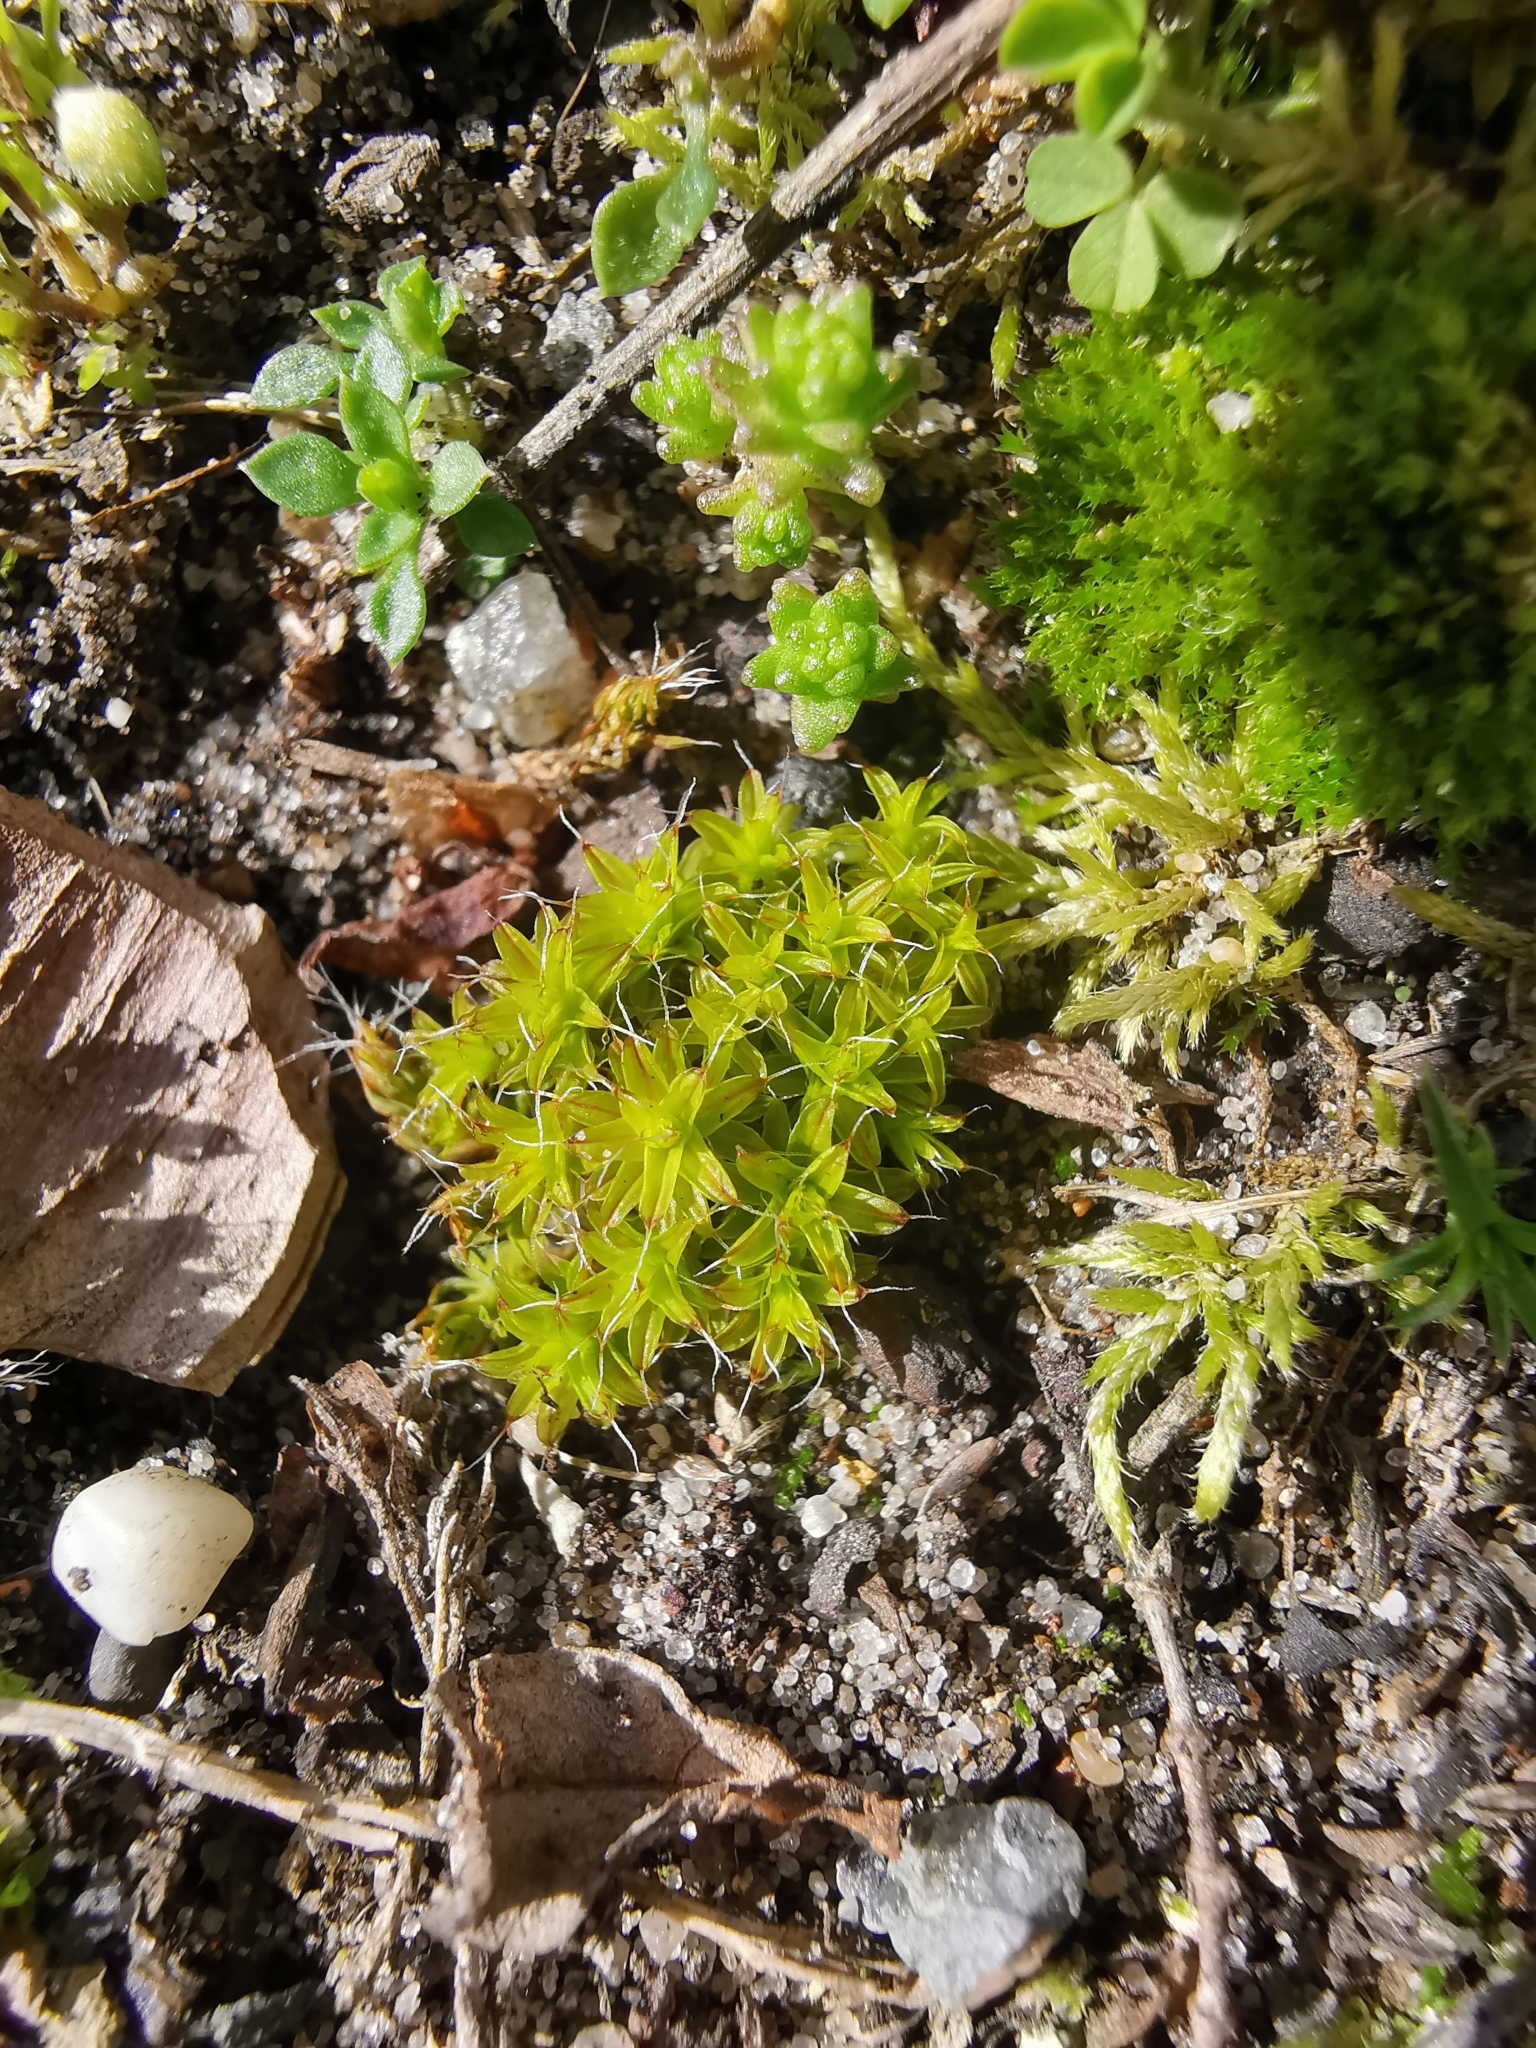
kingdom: Plantae
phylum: Bryophyta
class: Bryopsida
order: Pottiales
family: Pottiaceae
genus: Syntrichia
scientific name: Syntrichia ruralis
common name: Sidewalk screw moss
